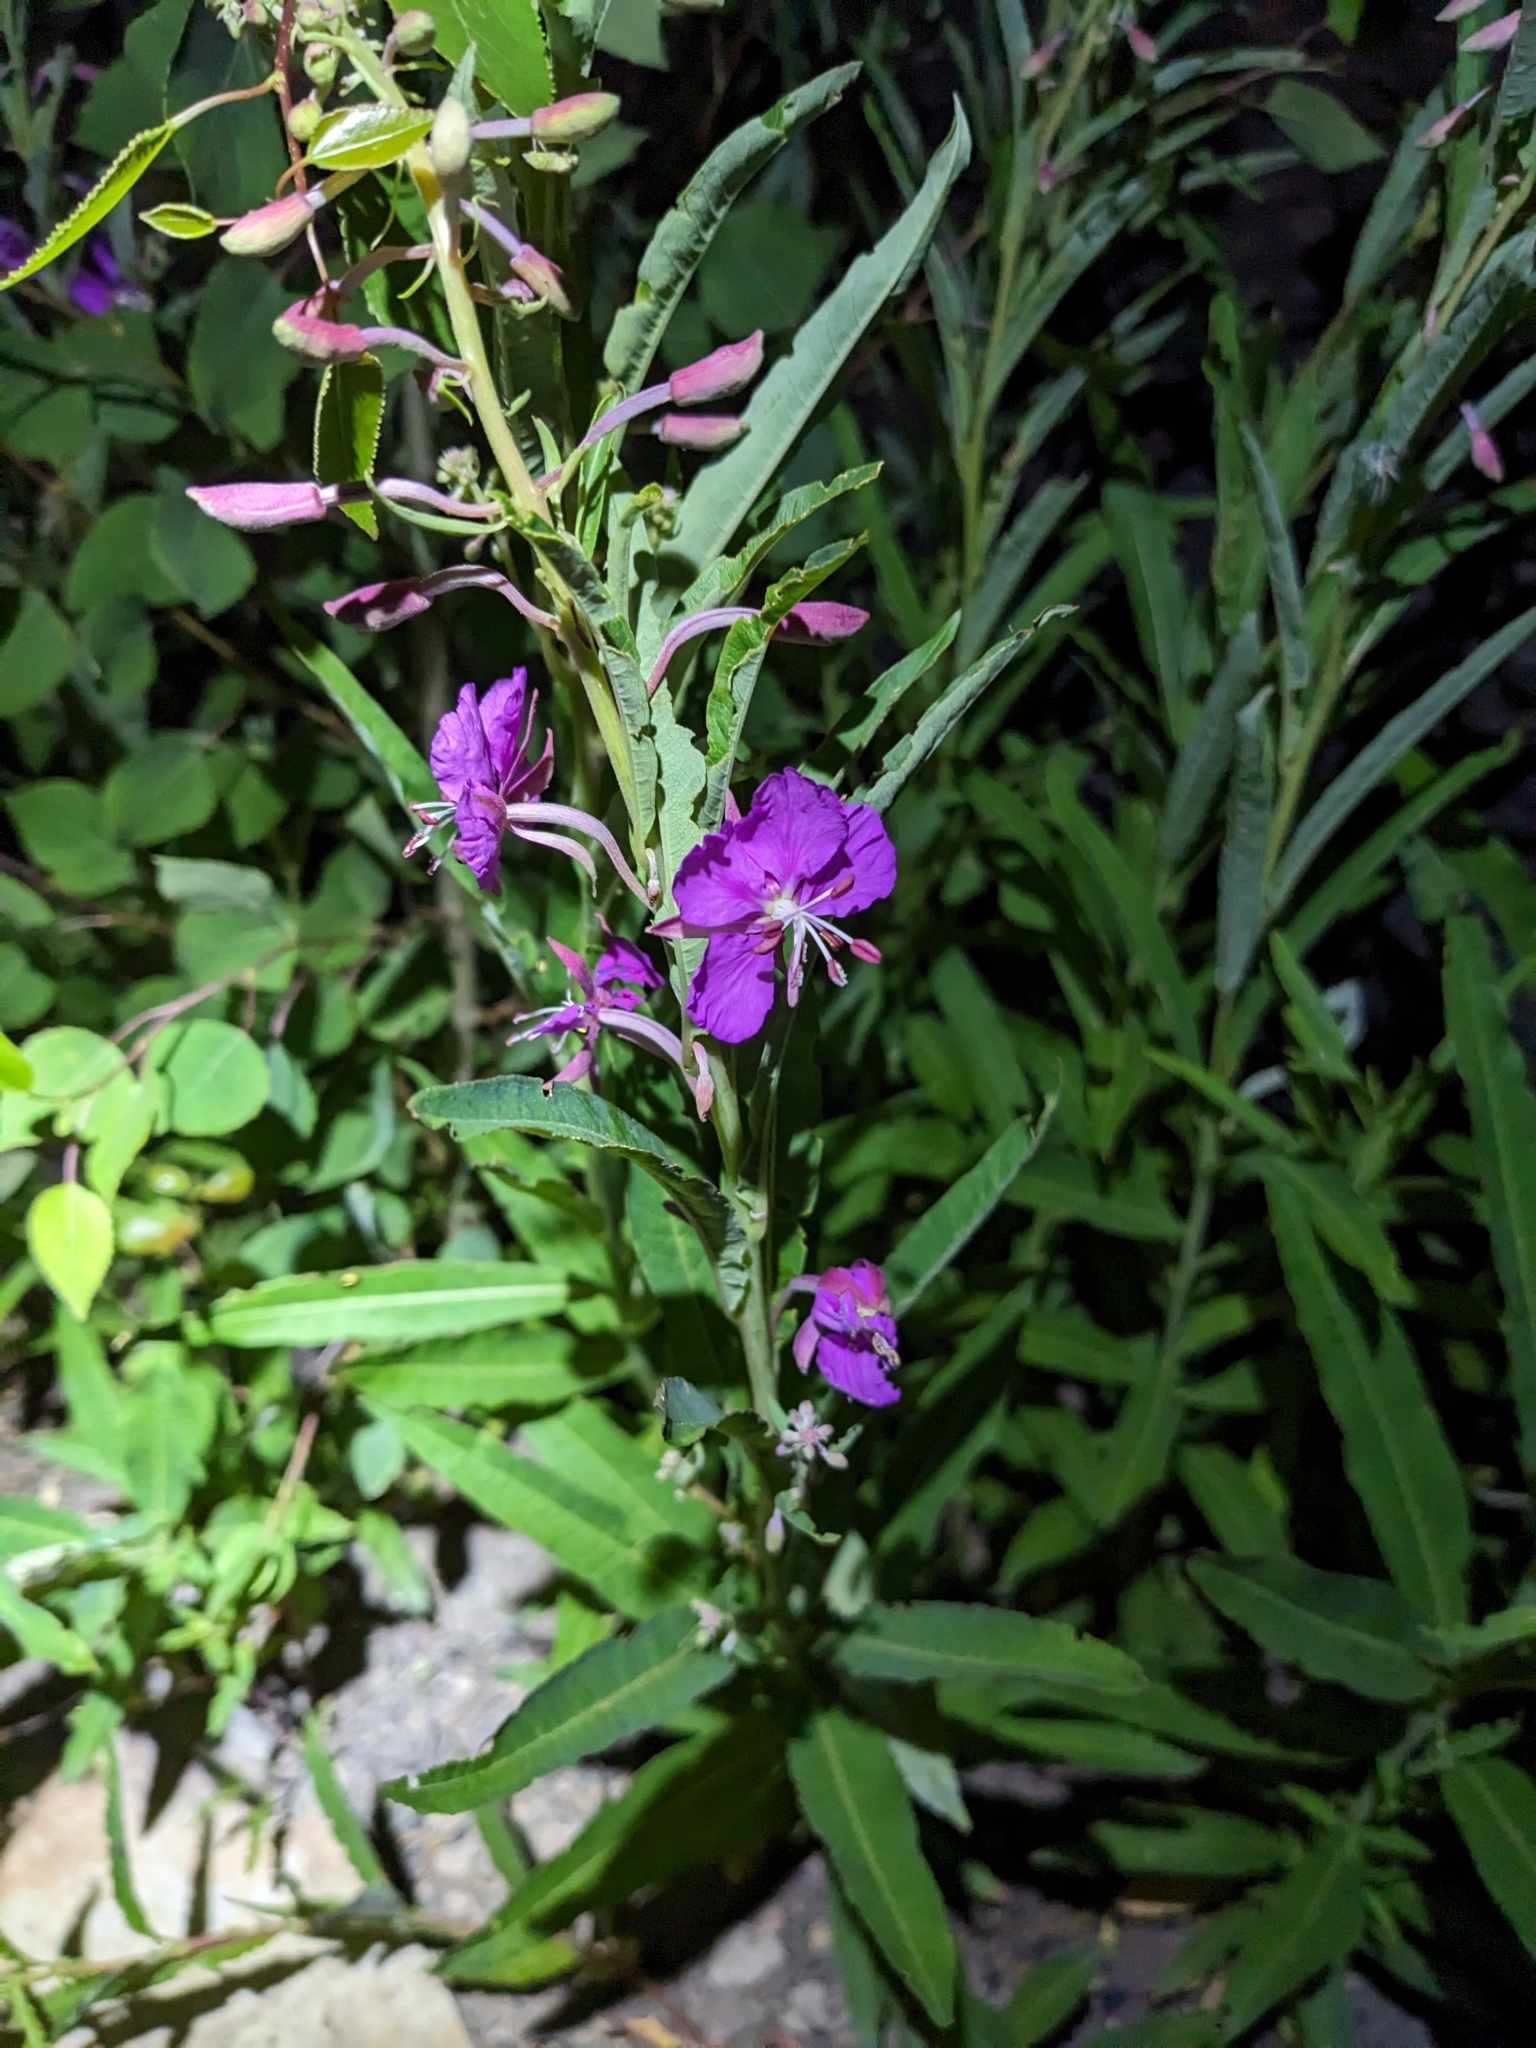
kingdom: Plantae
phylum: Tracheophyta
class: Magnoliopsida
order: Myrtales
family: Onagraceae
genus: Chamaenerion
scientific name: Chamaenerion angustifolium
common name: Fireweed
